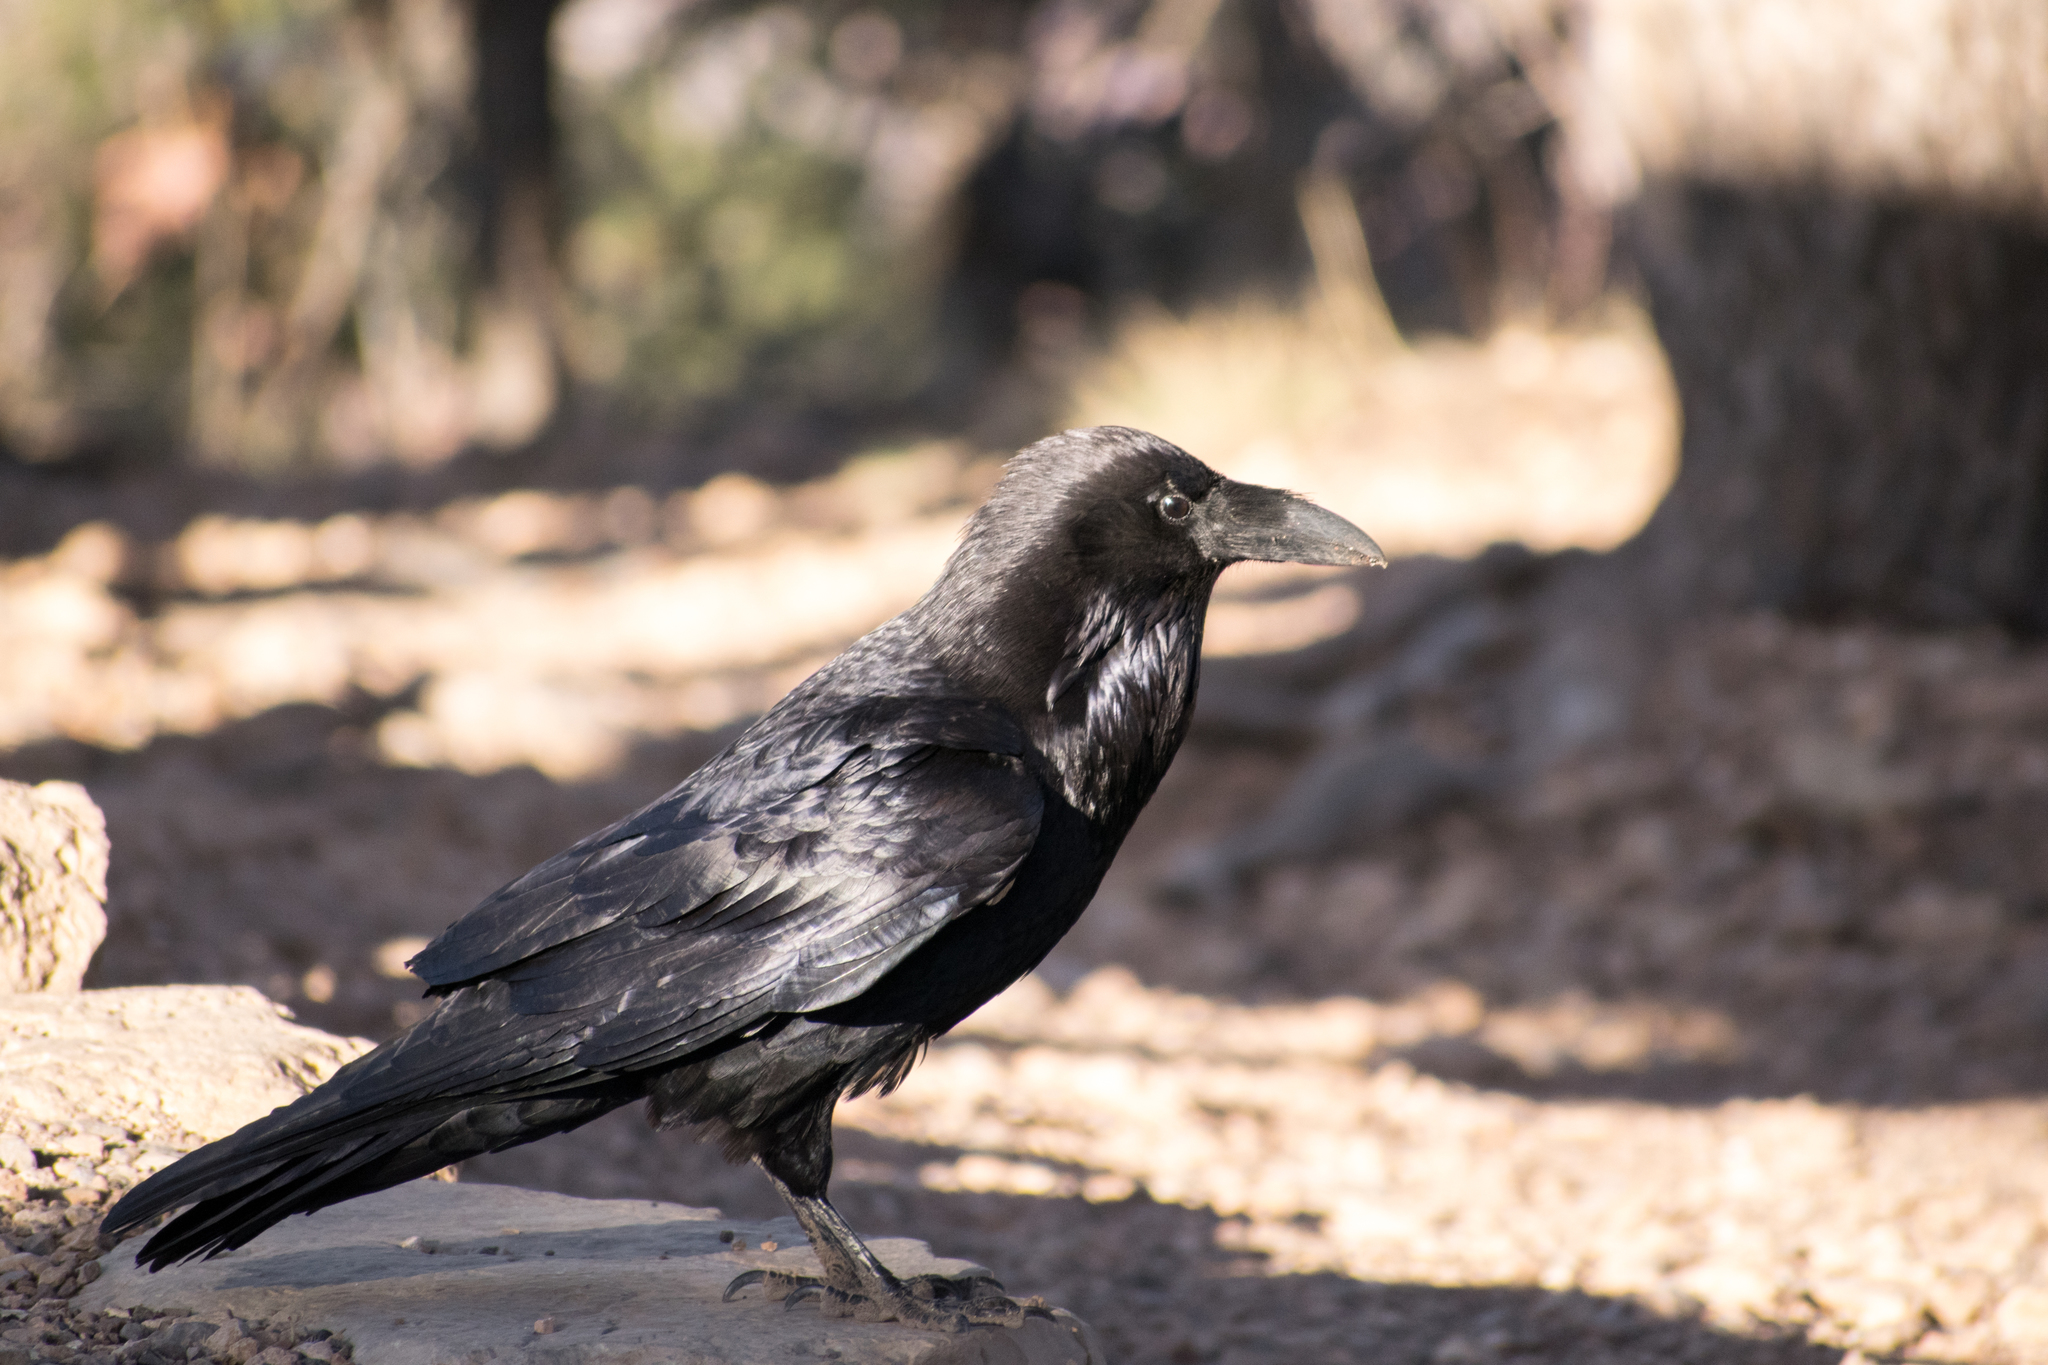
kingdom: Animalia
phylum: Chordata
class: Aves
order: Passeriformes
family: Corvidae
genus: Corvus
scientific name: Corvus corax
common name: Common raven
